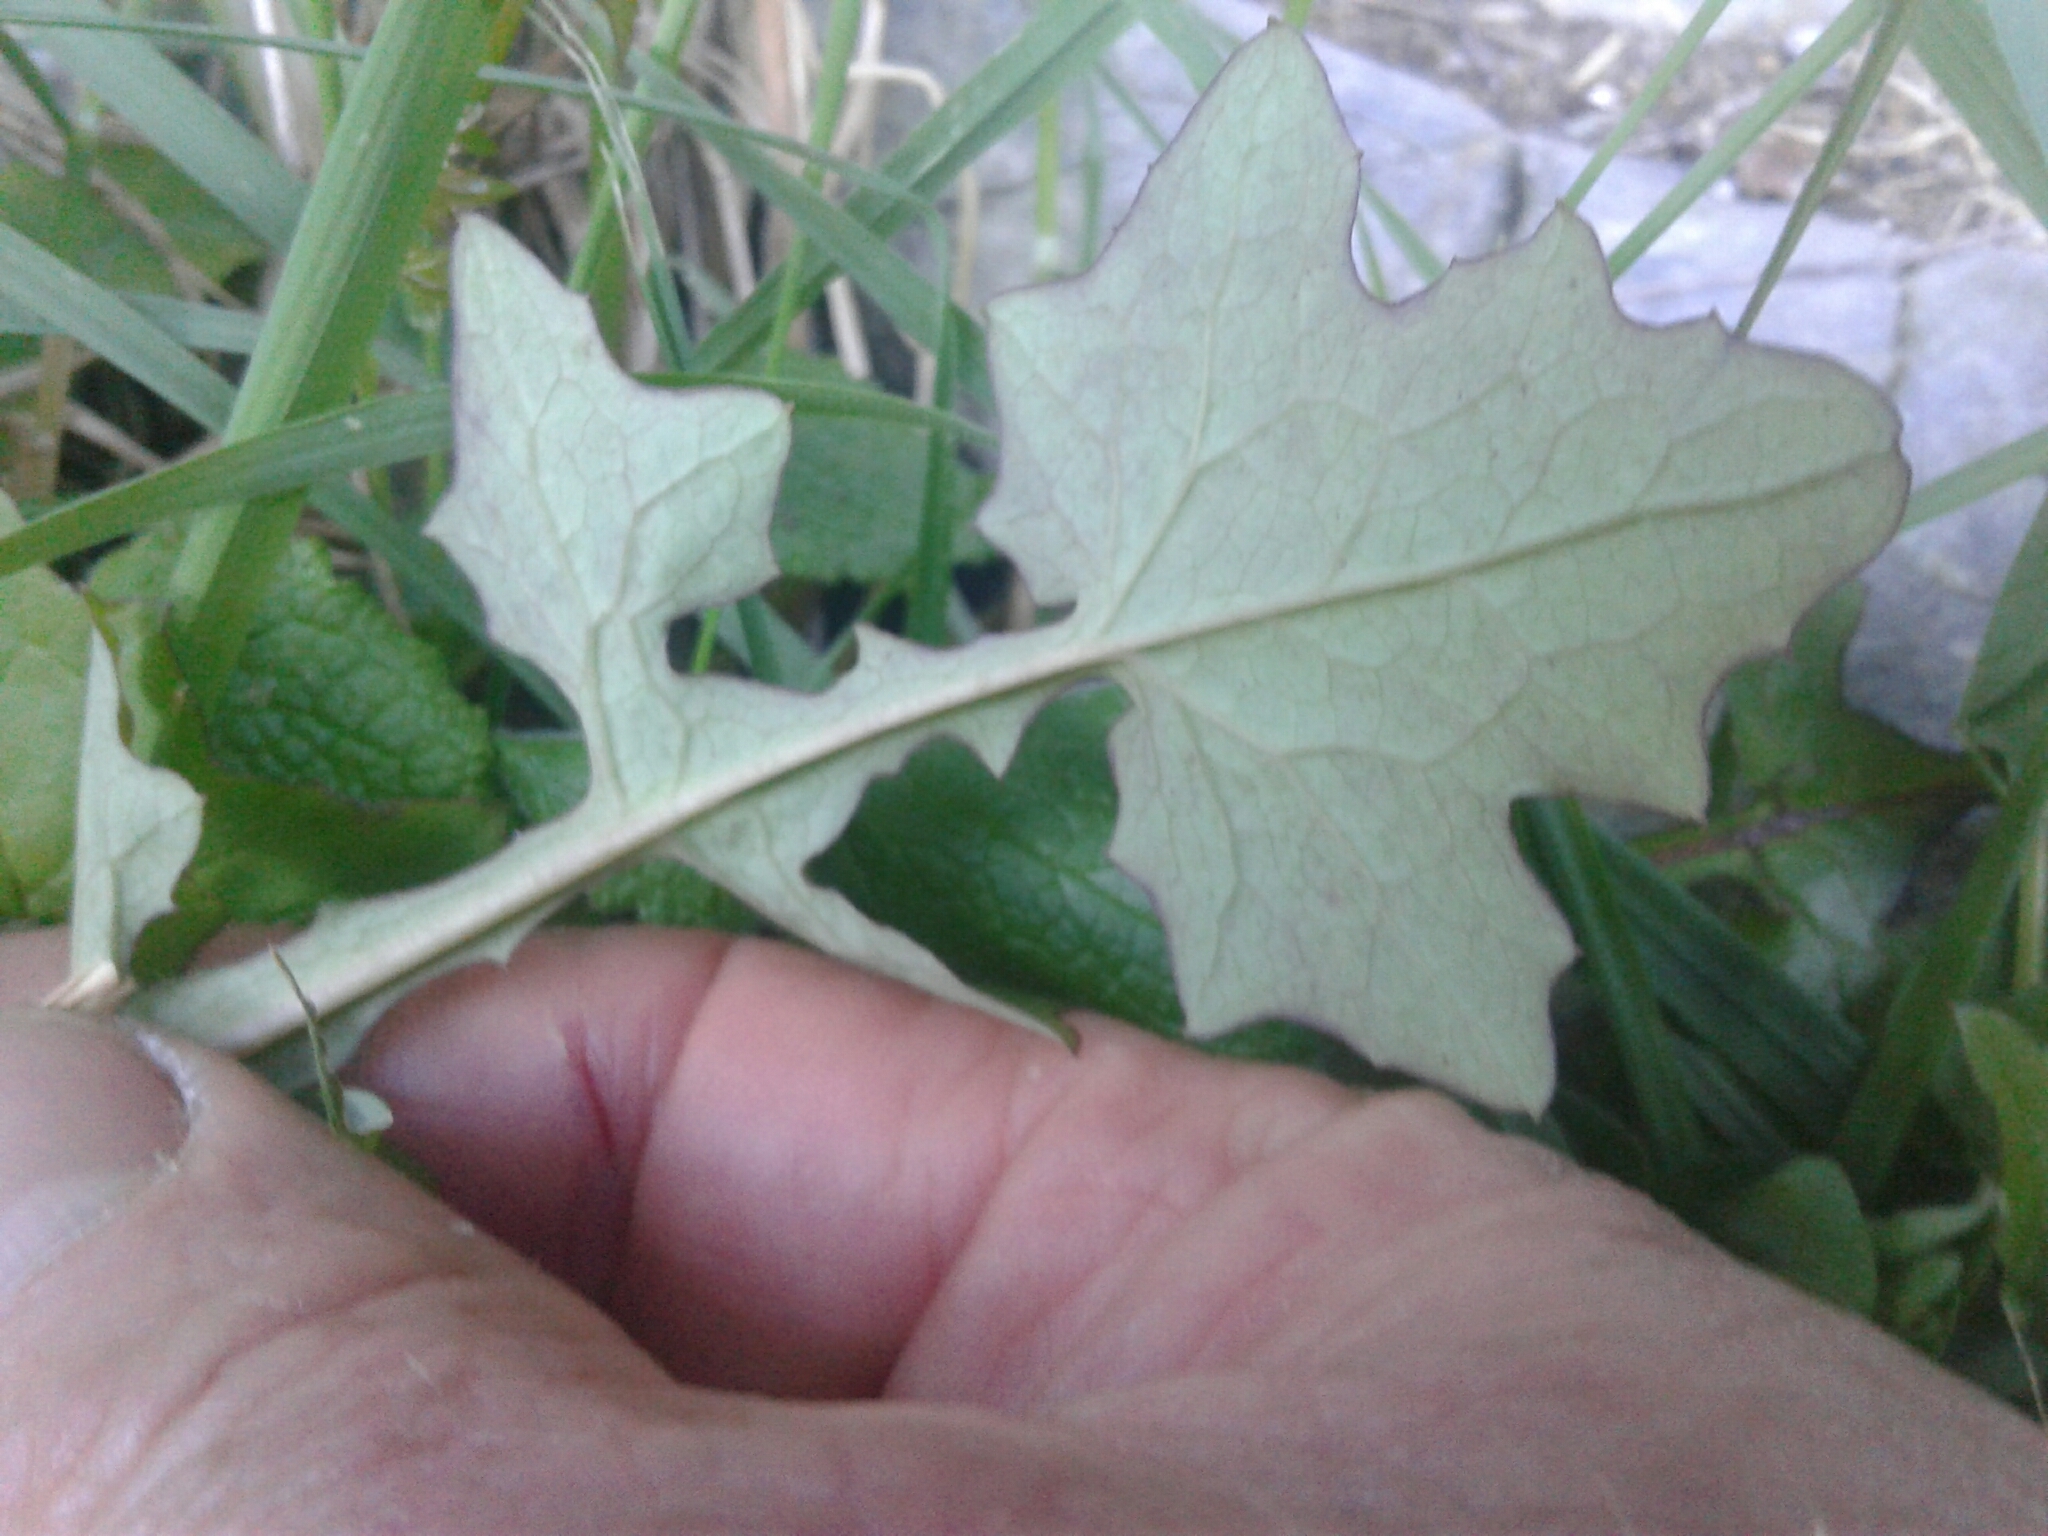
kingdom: Plantae
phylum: Tracheophyta
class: Magnoliopsida
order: Asterales
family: Asteraceae
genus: Mycelis
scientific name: Mycelis muralis
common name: Wall lettuce
